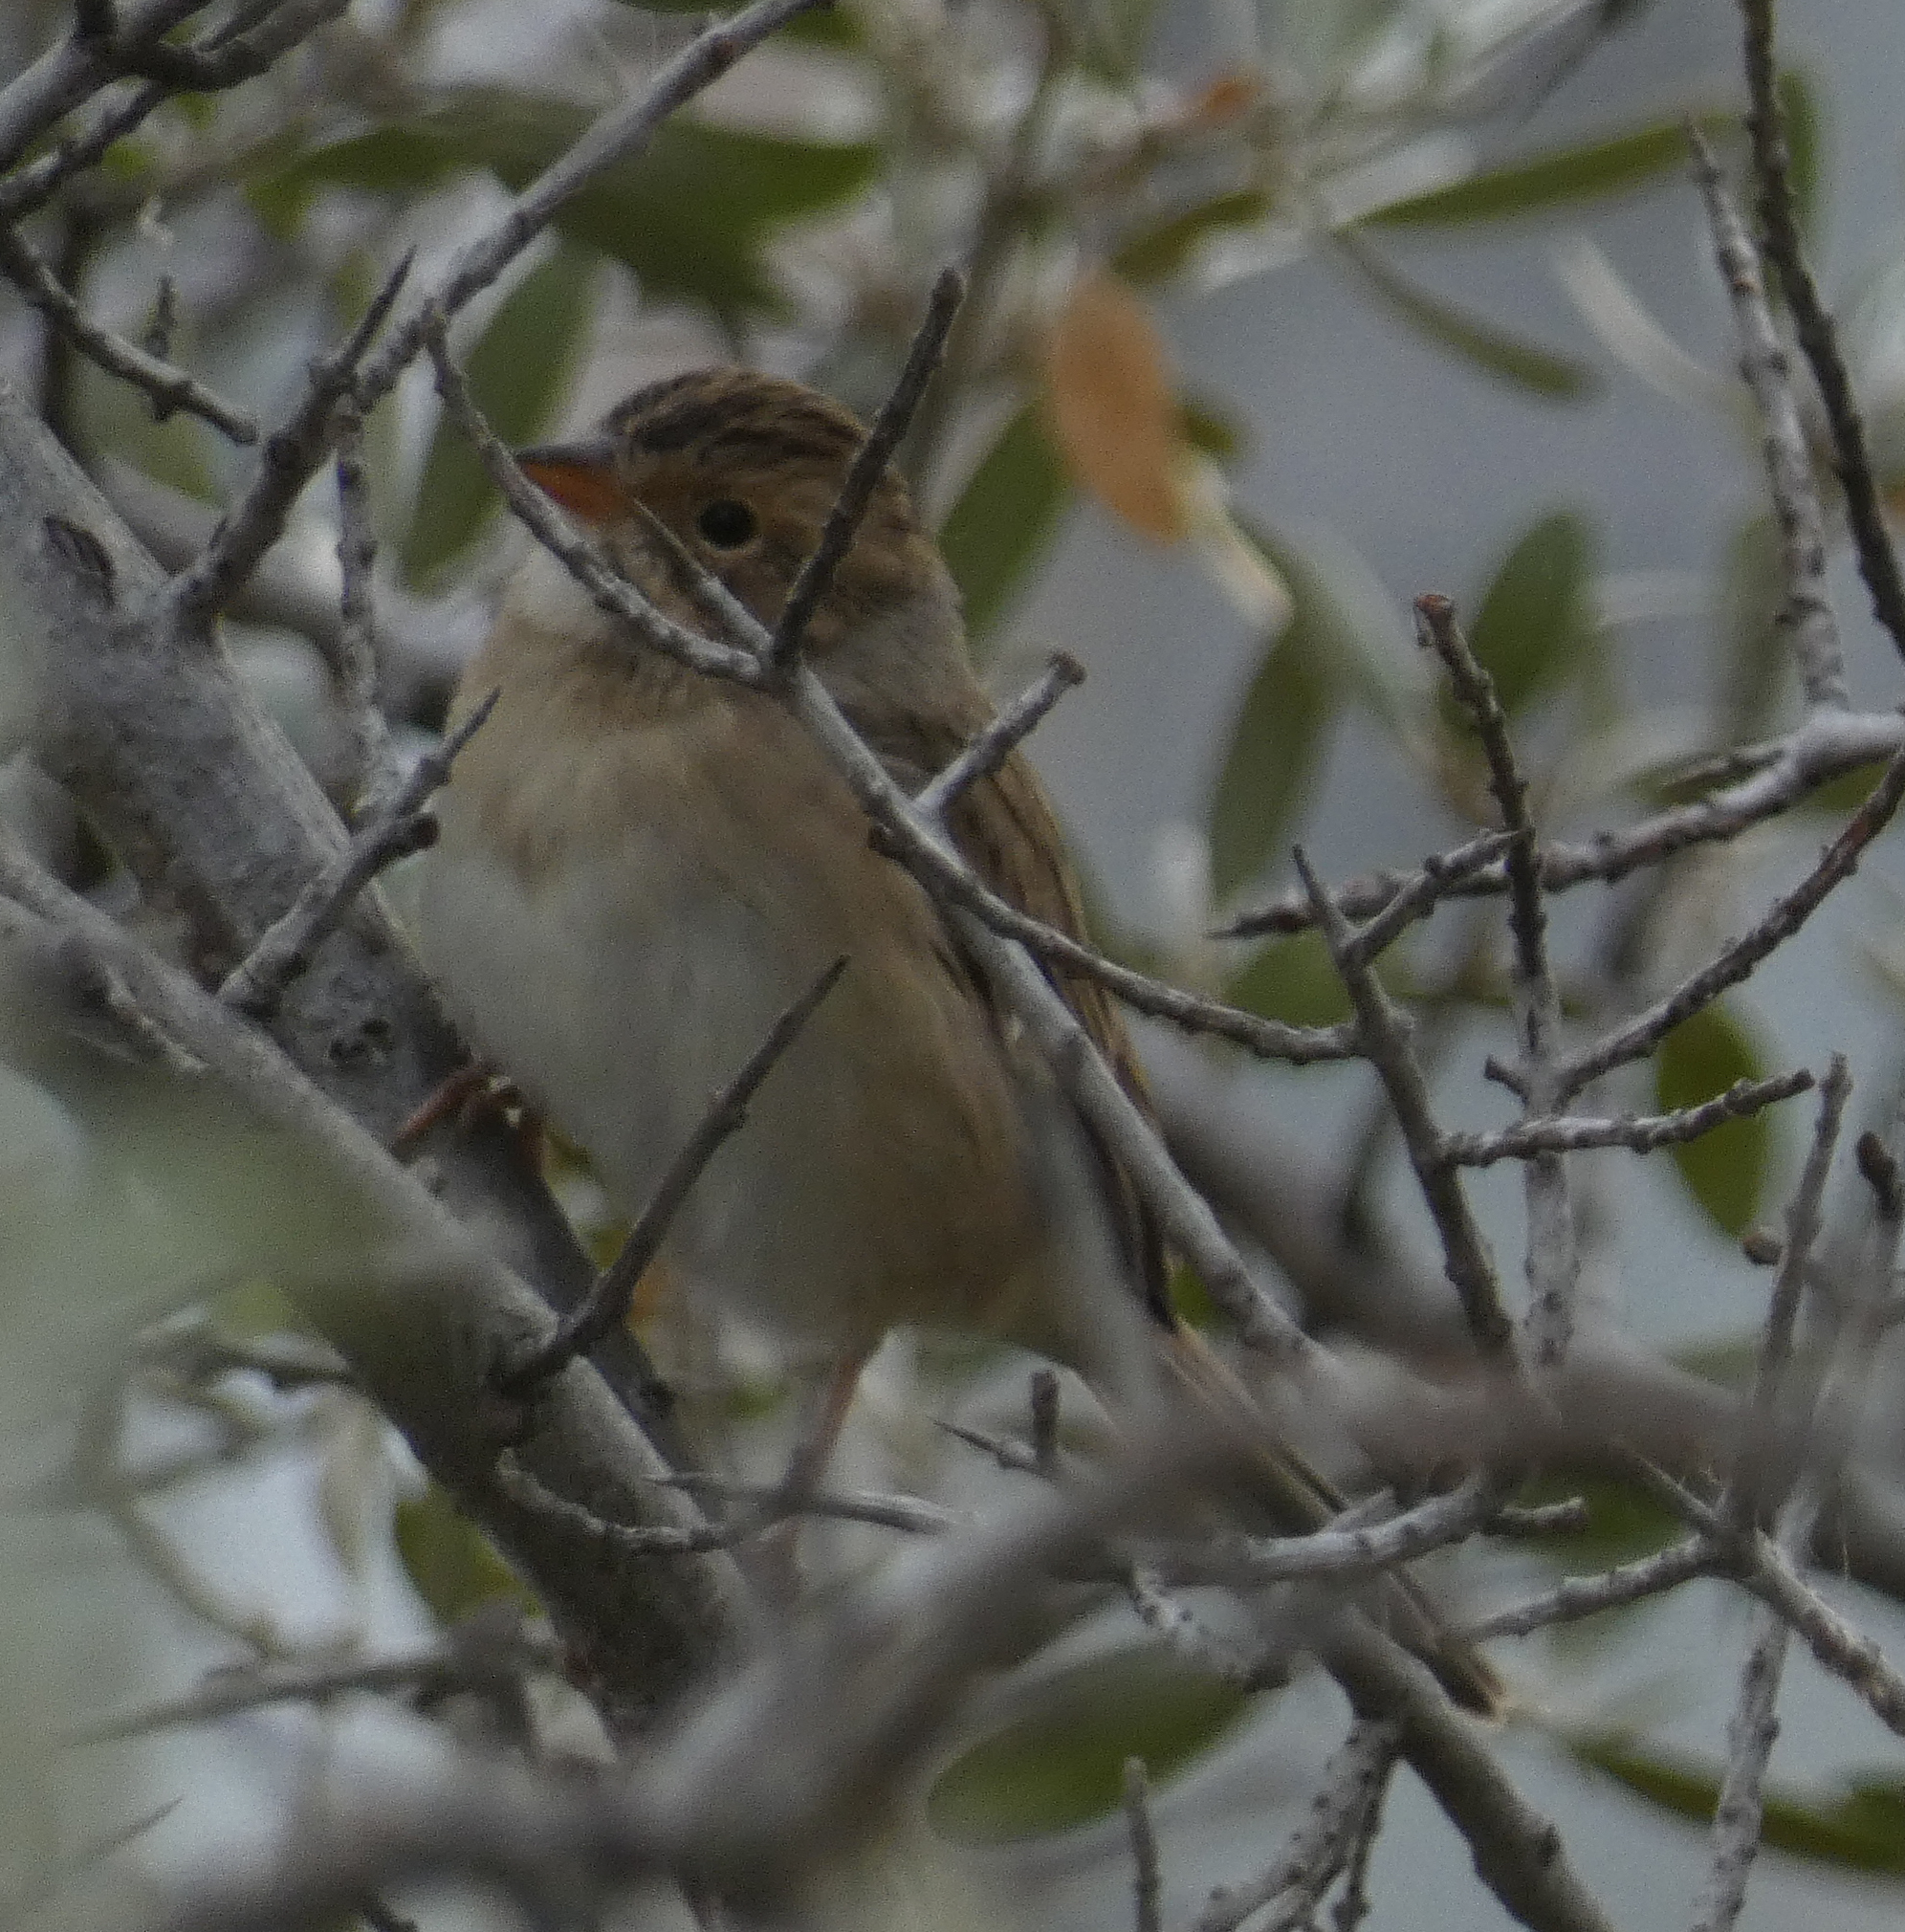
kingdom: Animalia
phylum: Chordata
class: Aves
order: Passeriformes
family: Passerellidae
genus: Spizella
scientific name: Spizella pallida
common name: Clay-colored sparrow
